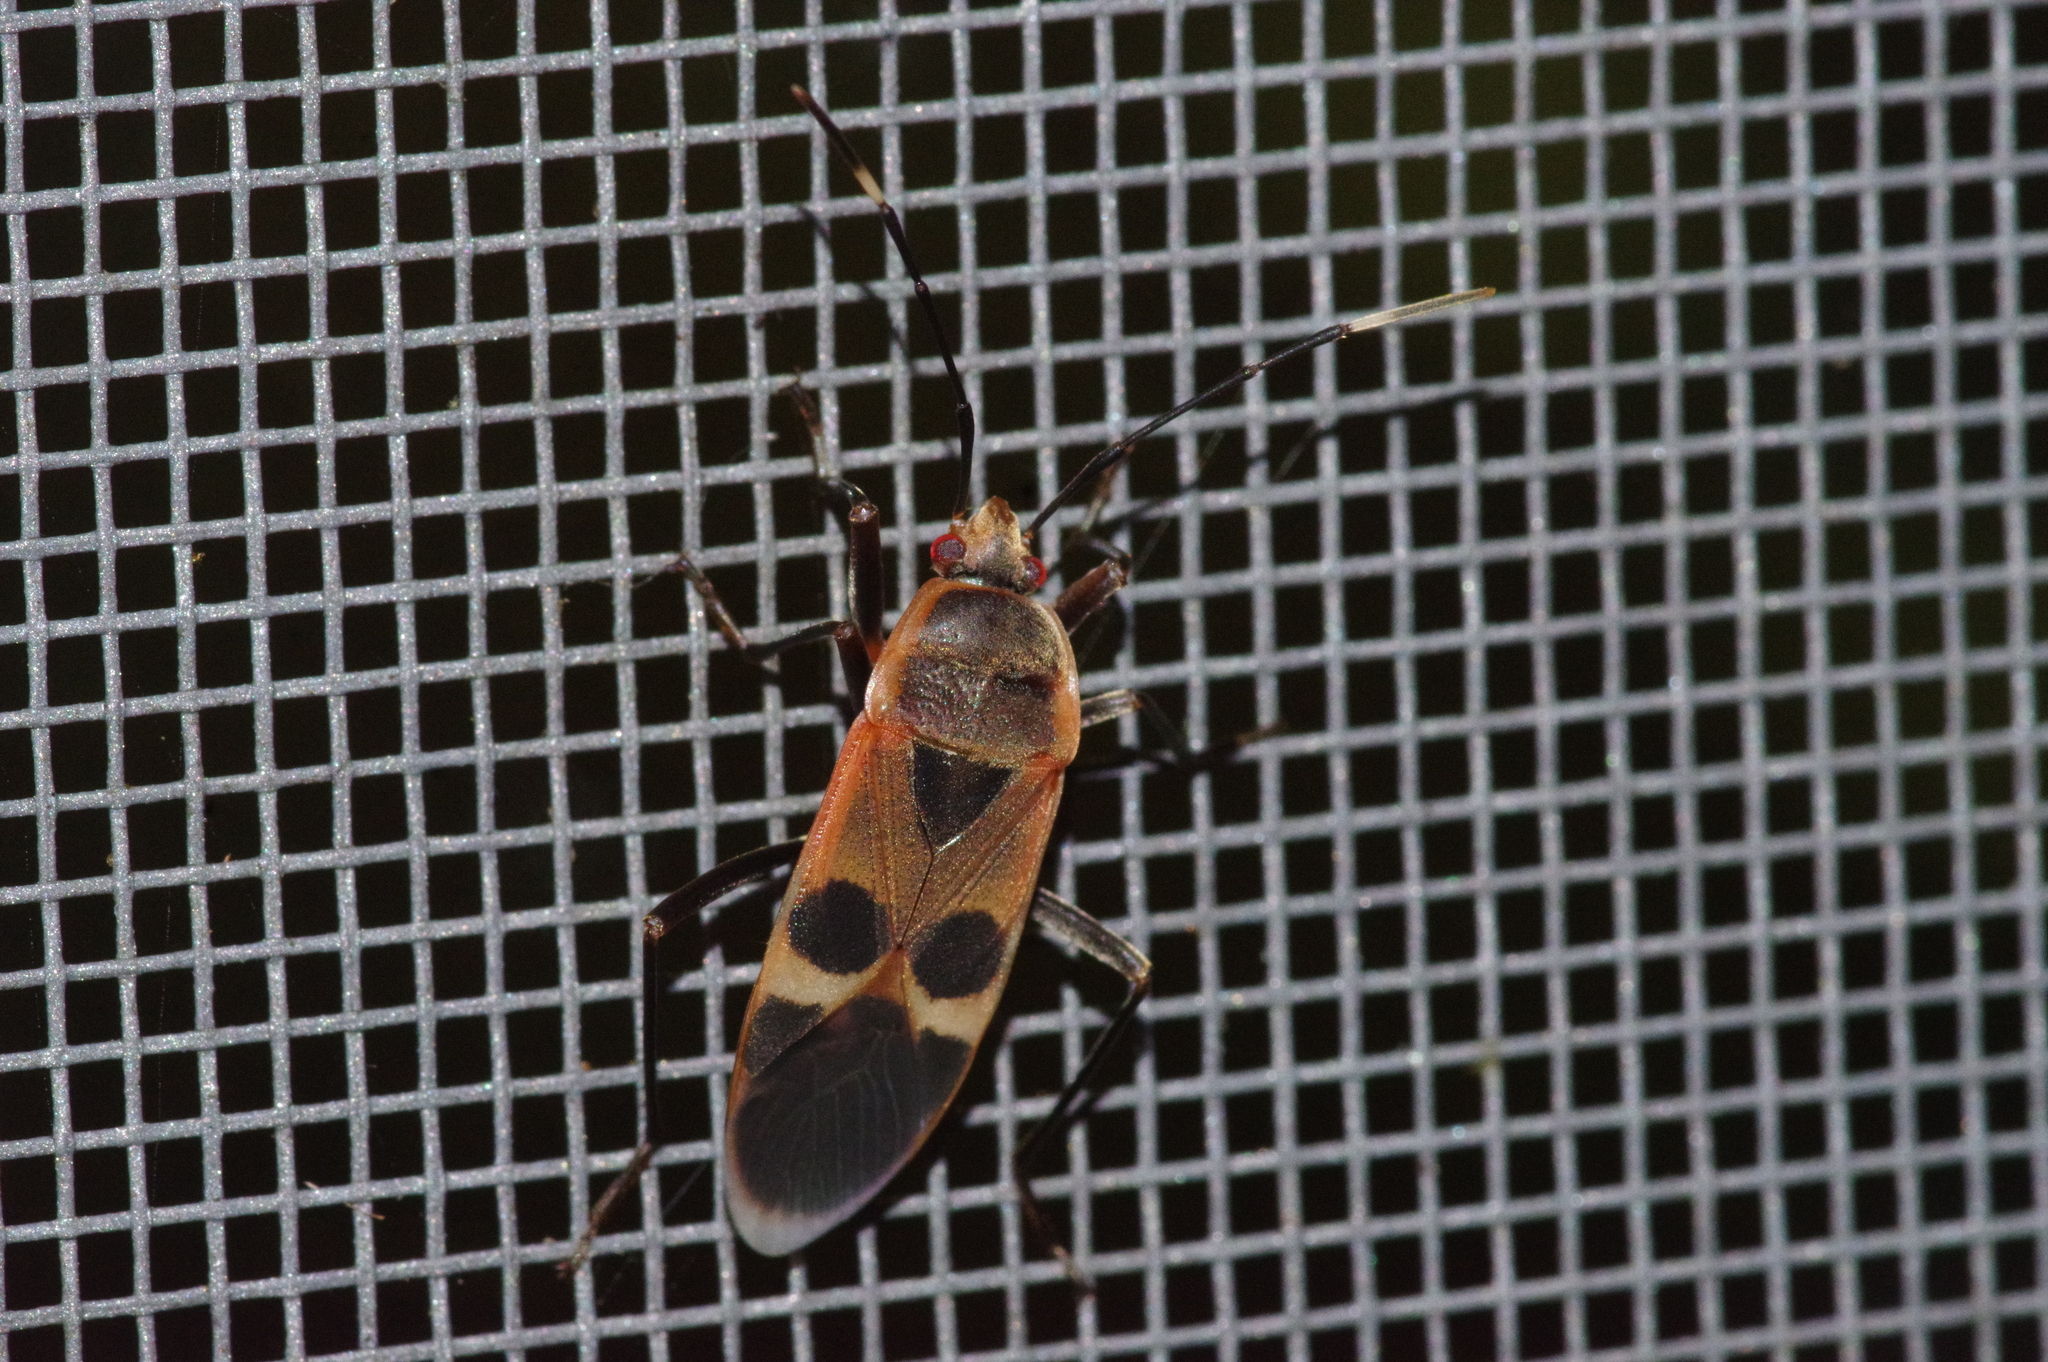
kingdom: Animalia
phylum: Arthropoda
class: Insecta
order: Hemiptera
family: Largidae
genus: Physopelta
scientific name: Physopelta gutta
